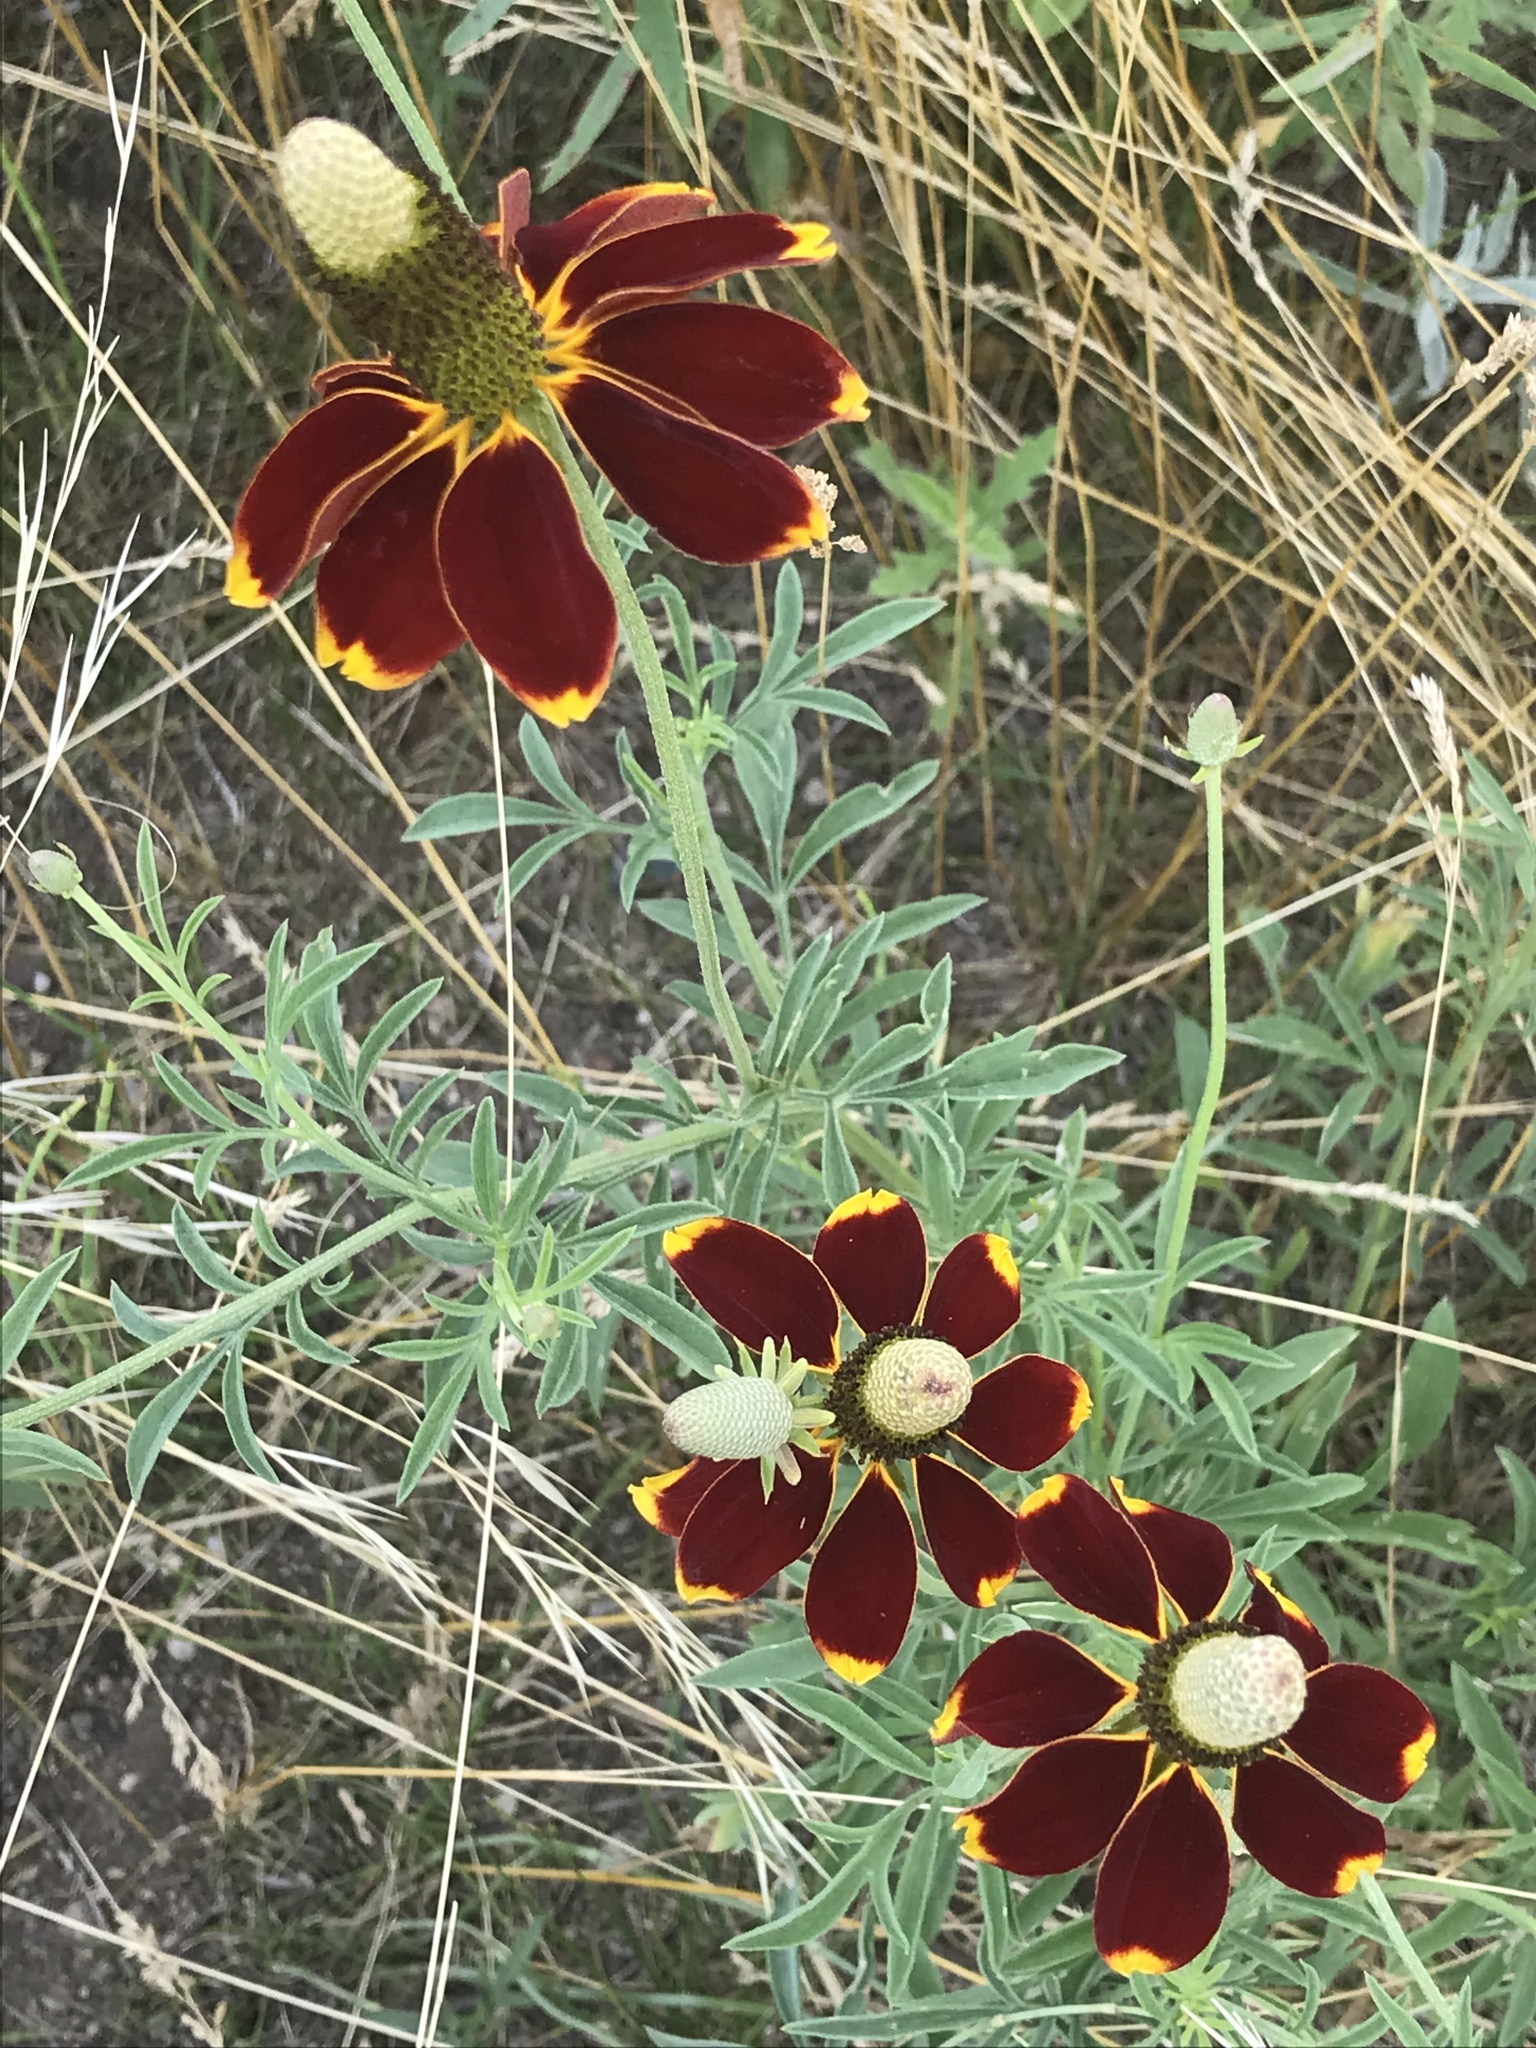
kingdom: Plantae
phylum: Tracheophyta
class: Magnoliopsida
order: Asterales
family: Asteraceae
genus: Ratibida
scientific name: Ratibida columnifera
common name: Prairie coneflower
